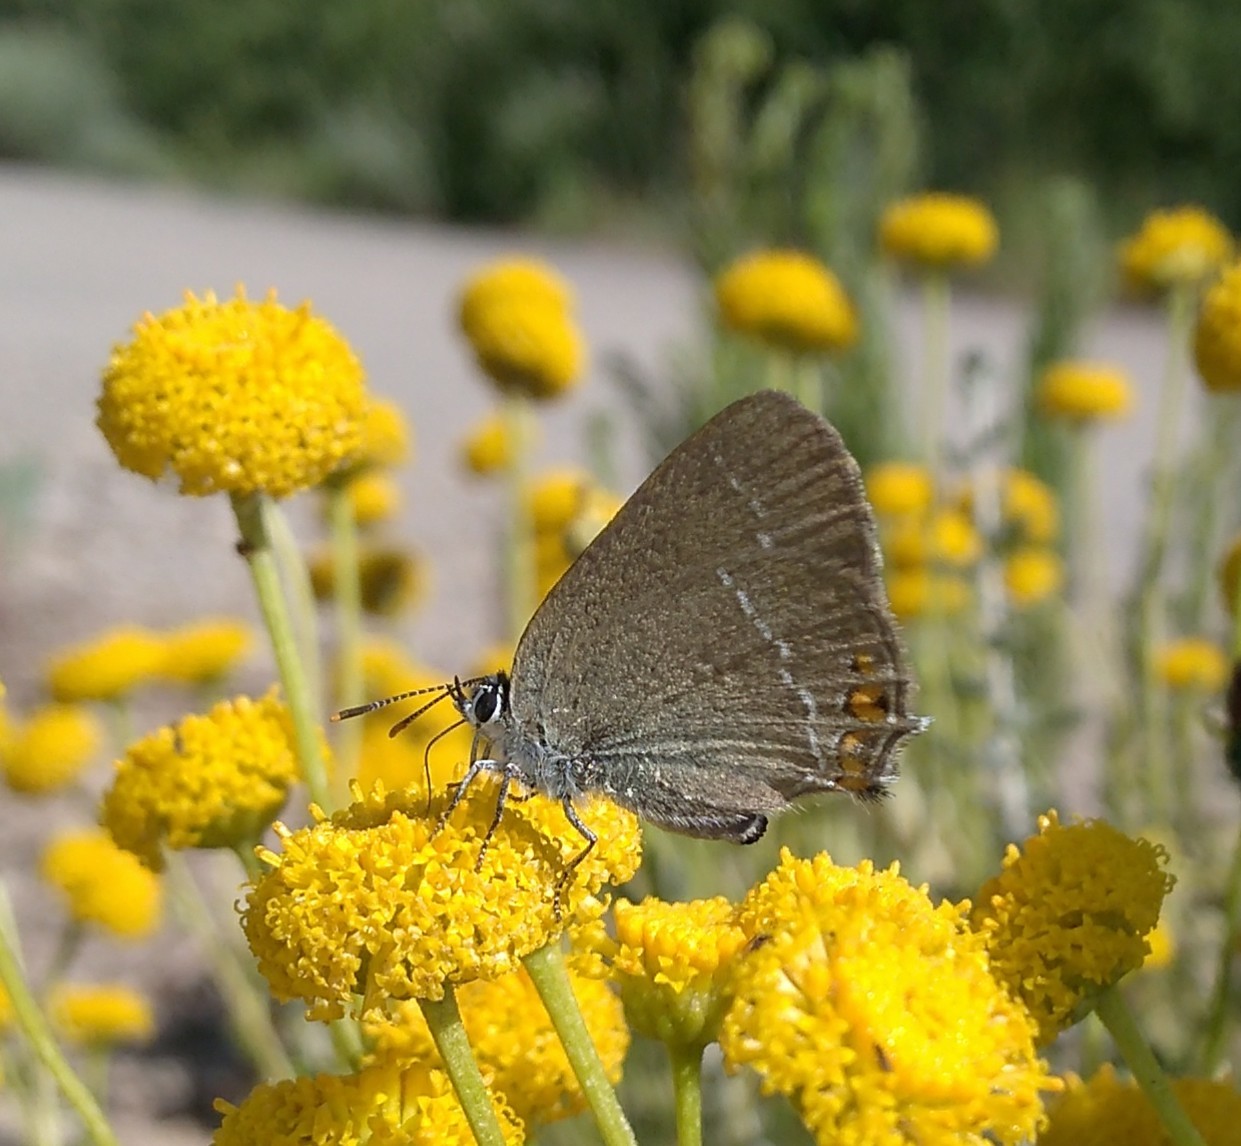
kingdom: Animalia
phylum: Arthropoda
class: Insecta
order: Lepidoptera
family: Lycaenidae
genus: Strymon
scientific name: Strymon acaciae
